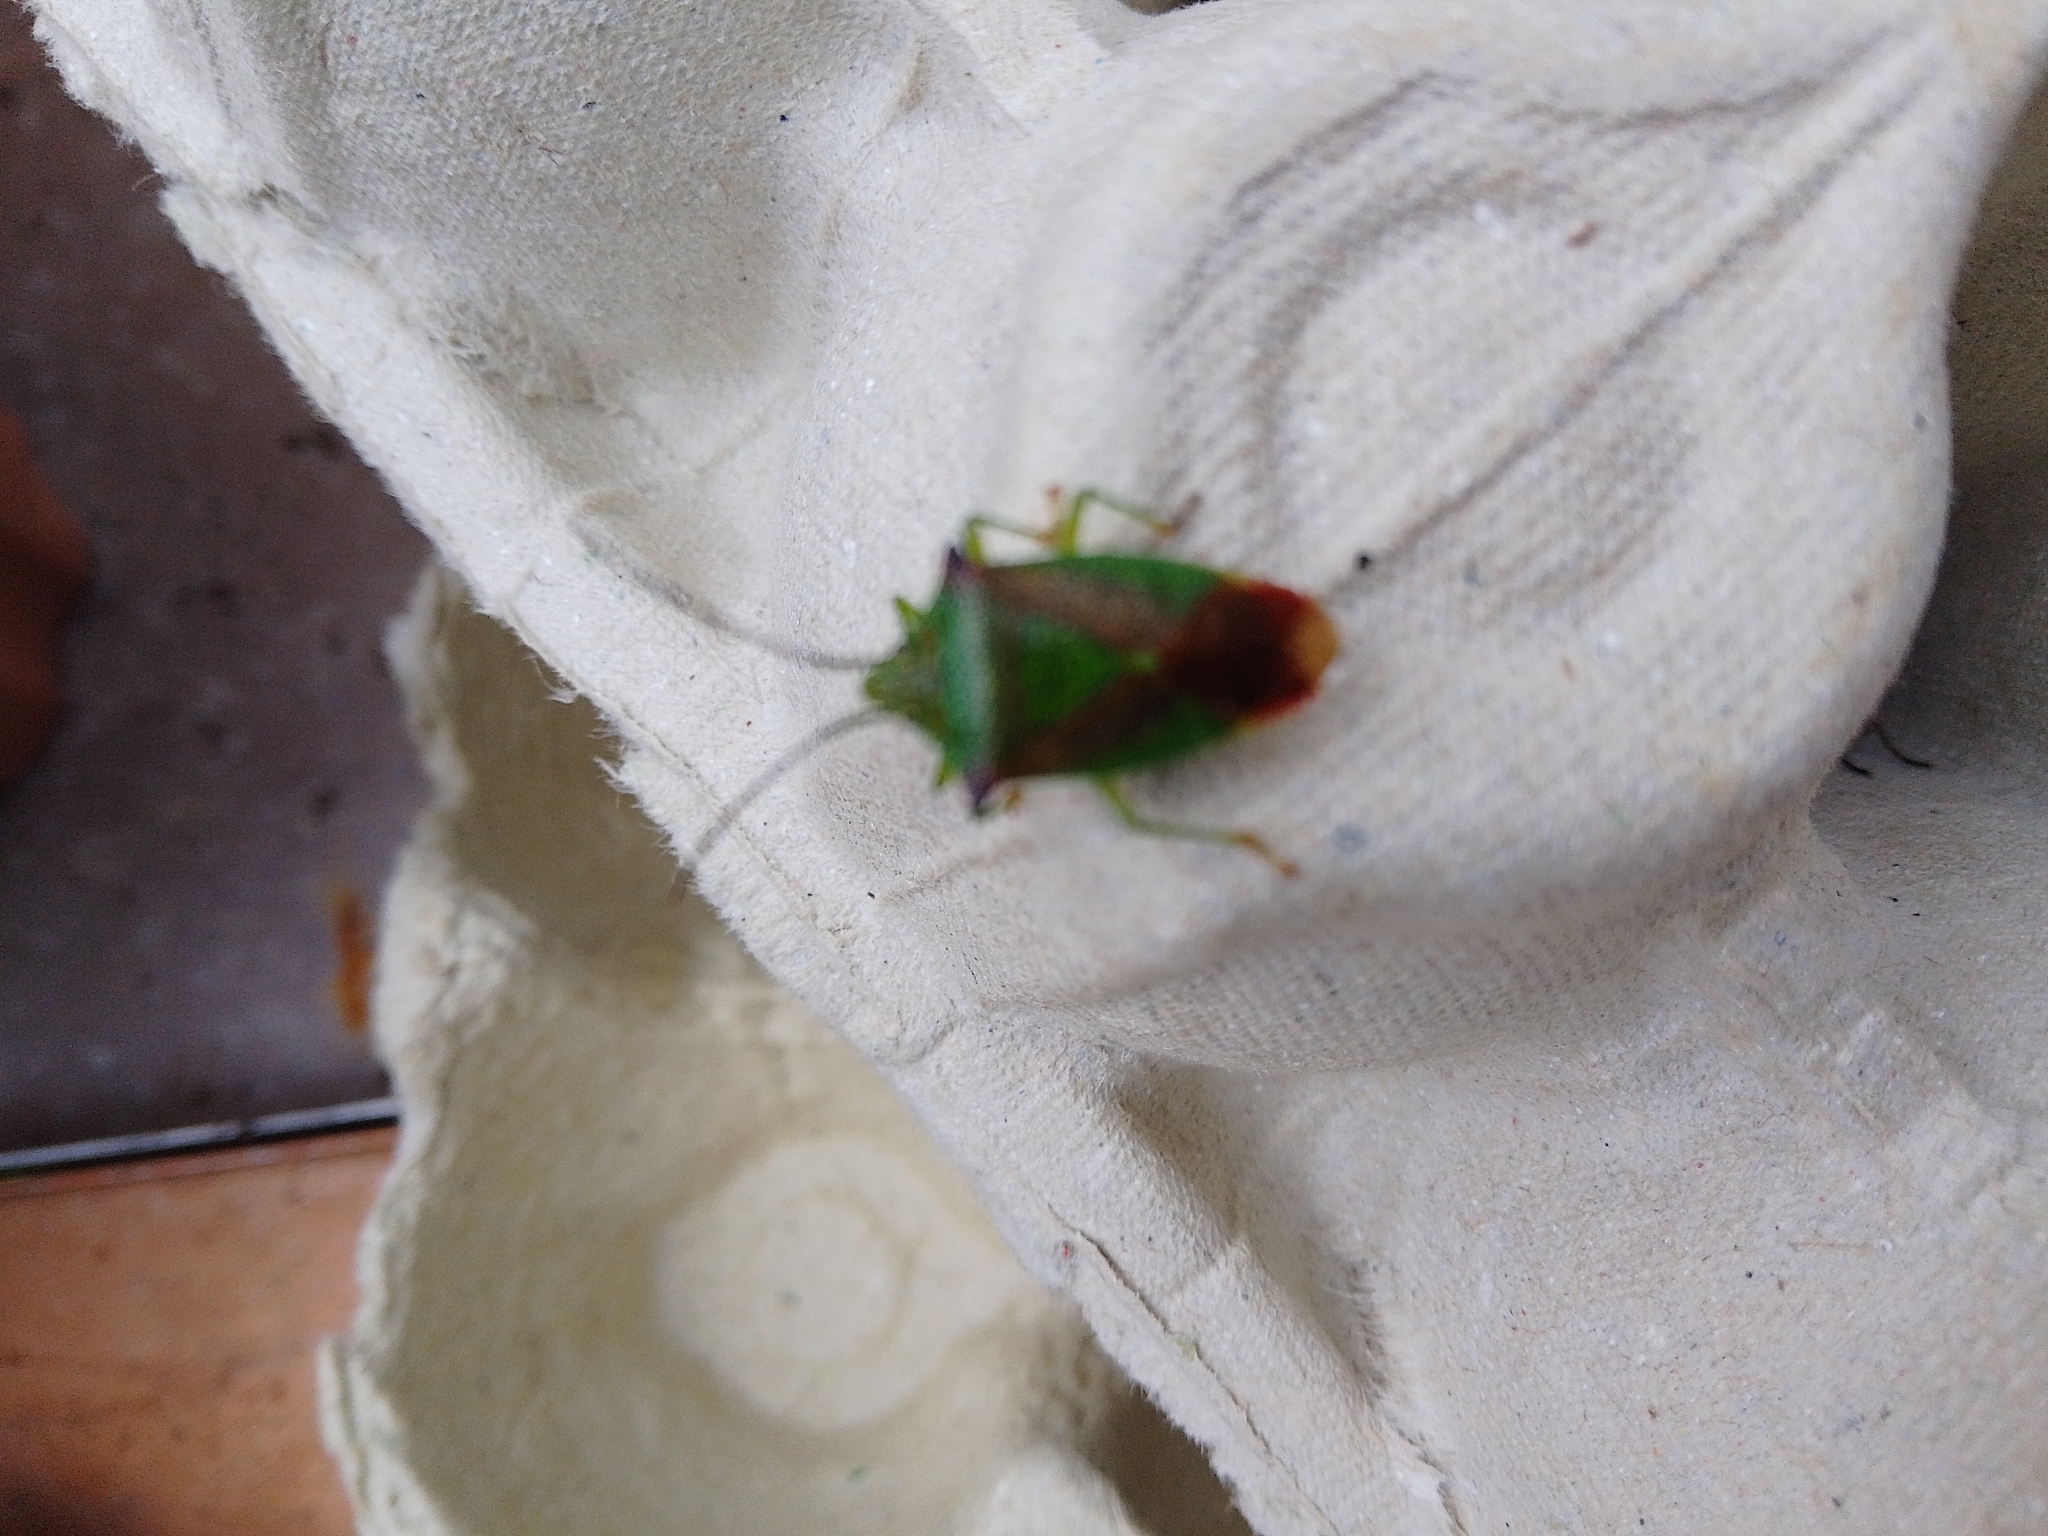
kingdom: Animalia
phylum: Arthropoda
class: Insecta
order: Hemiptera
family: Acanthosomatidae
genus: Acanthosoma
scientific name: Acanthosoma haemorrhoidale
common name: Hawthorn shieldbug
